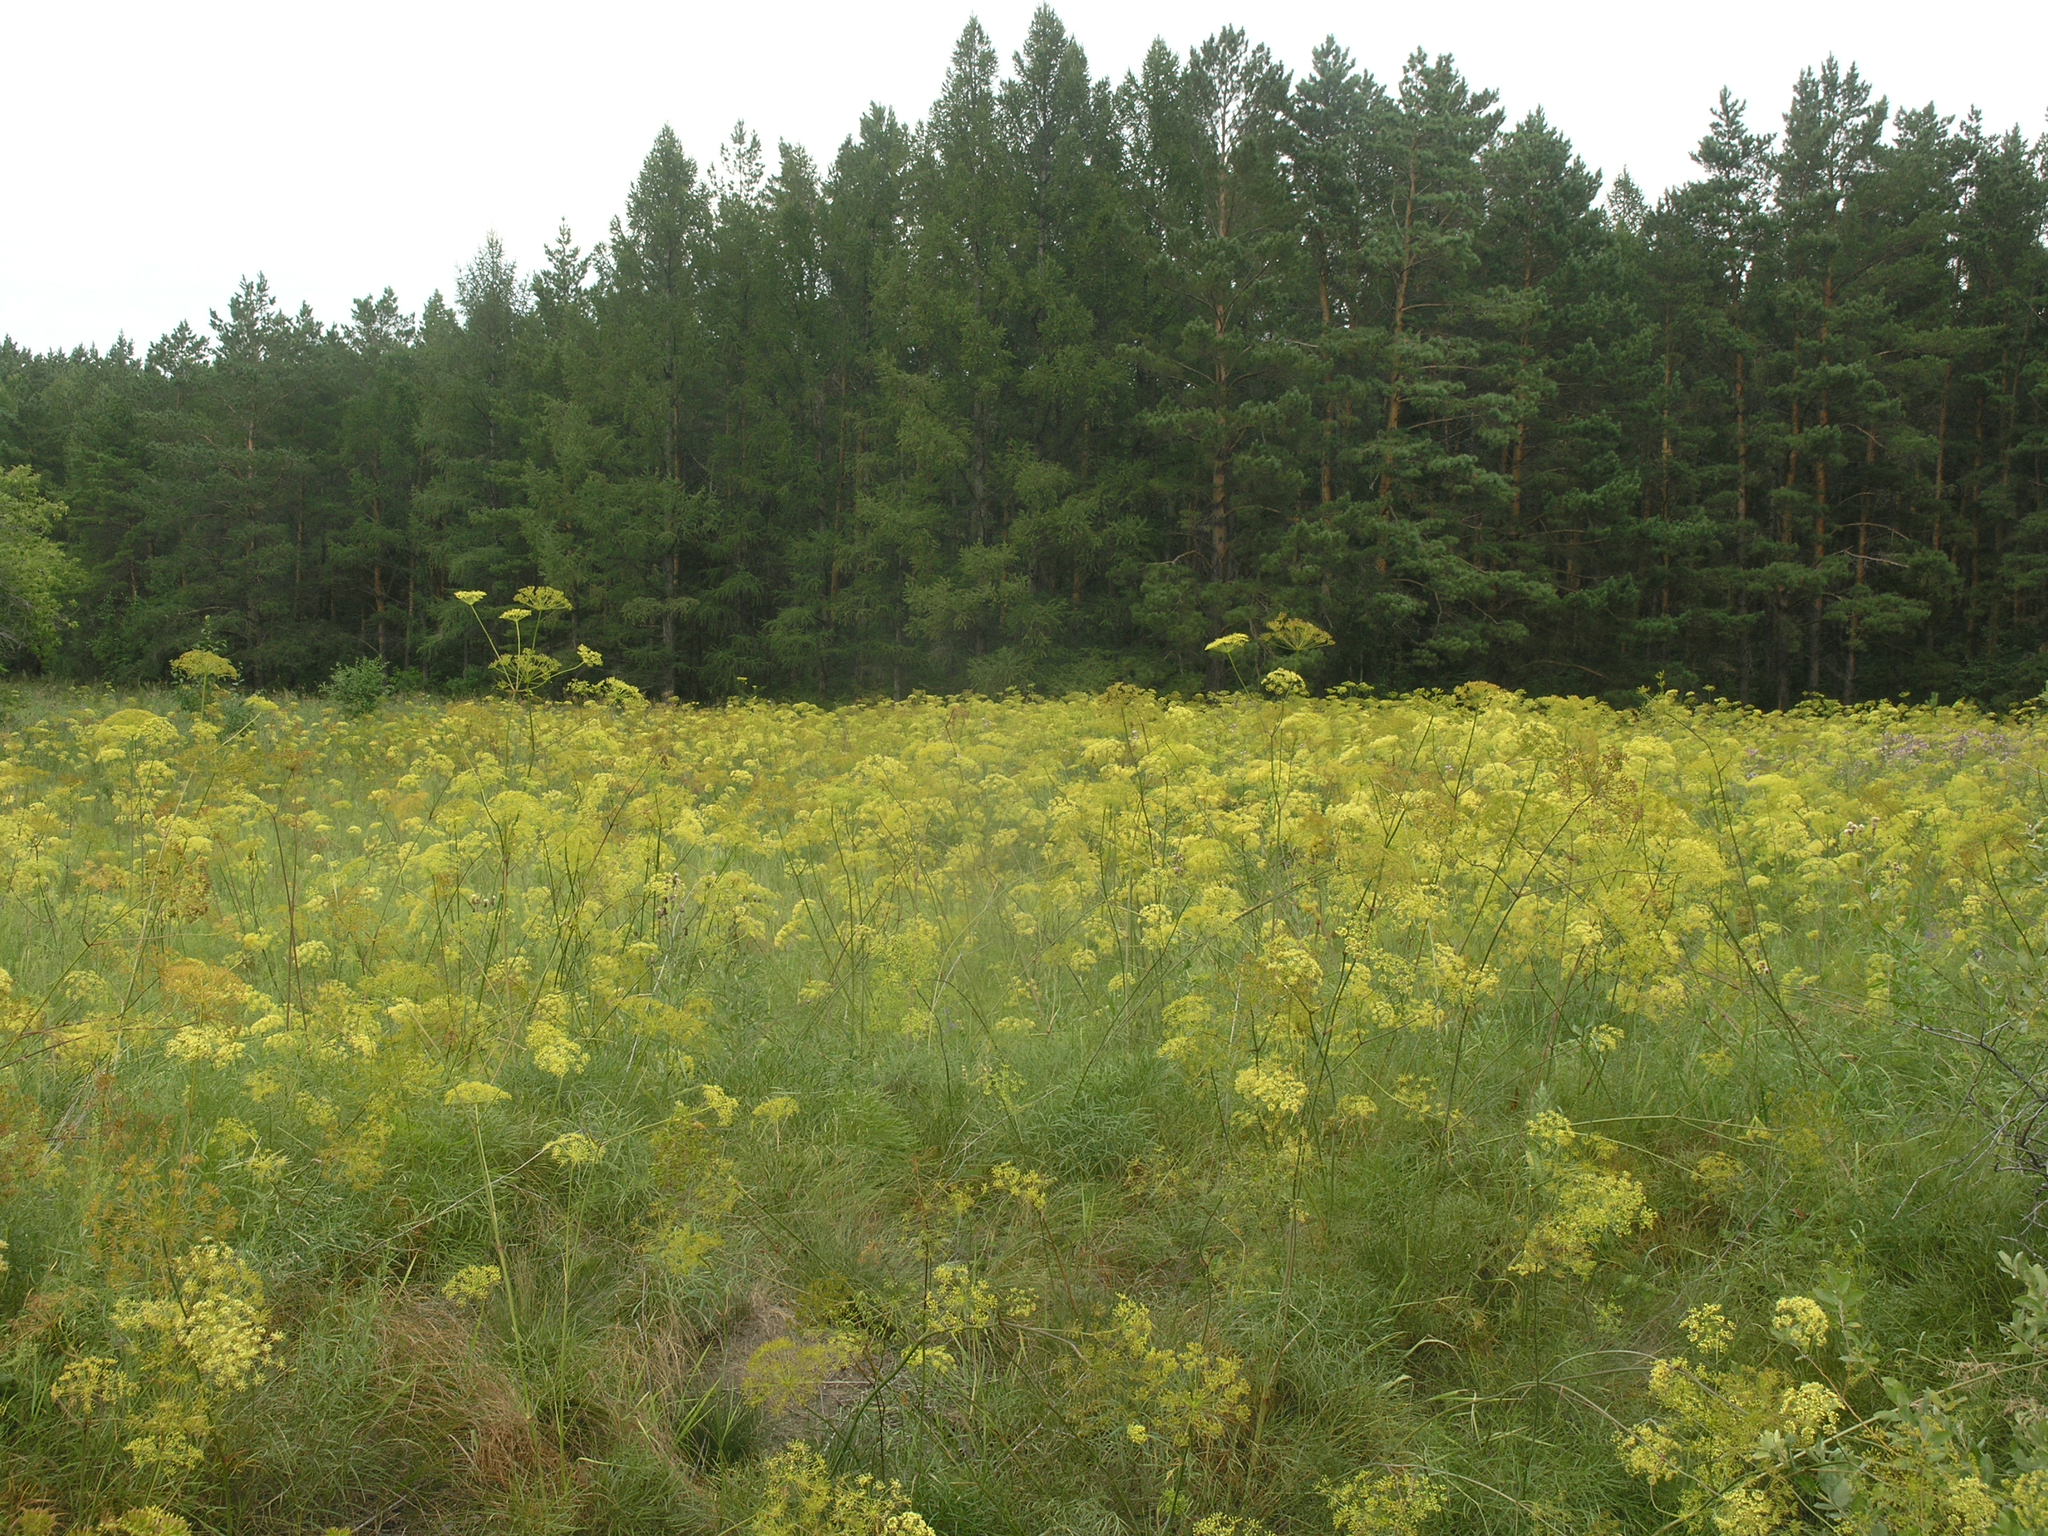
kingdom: Plantae
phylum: Tracheophyta
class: Magnoliopsida
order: Apiales
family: Apiaceae
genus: Peucedanum
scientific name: Peucedanum morisonii
